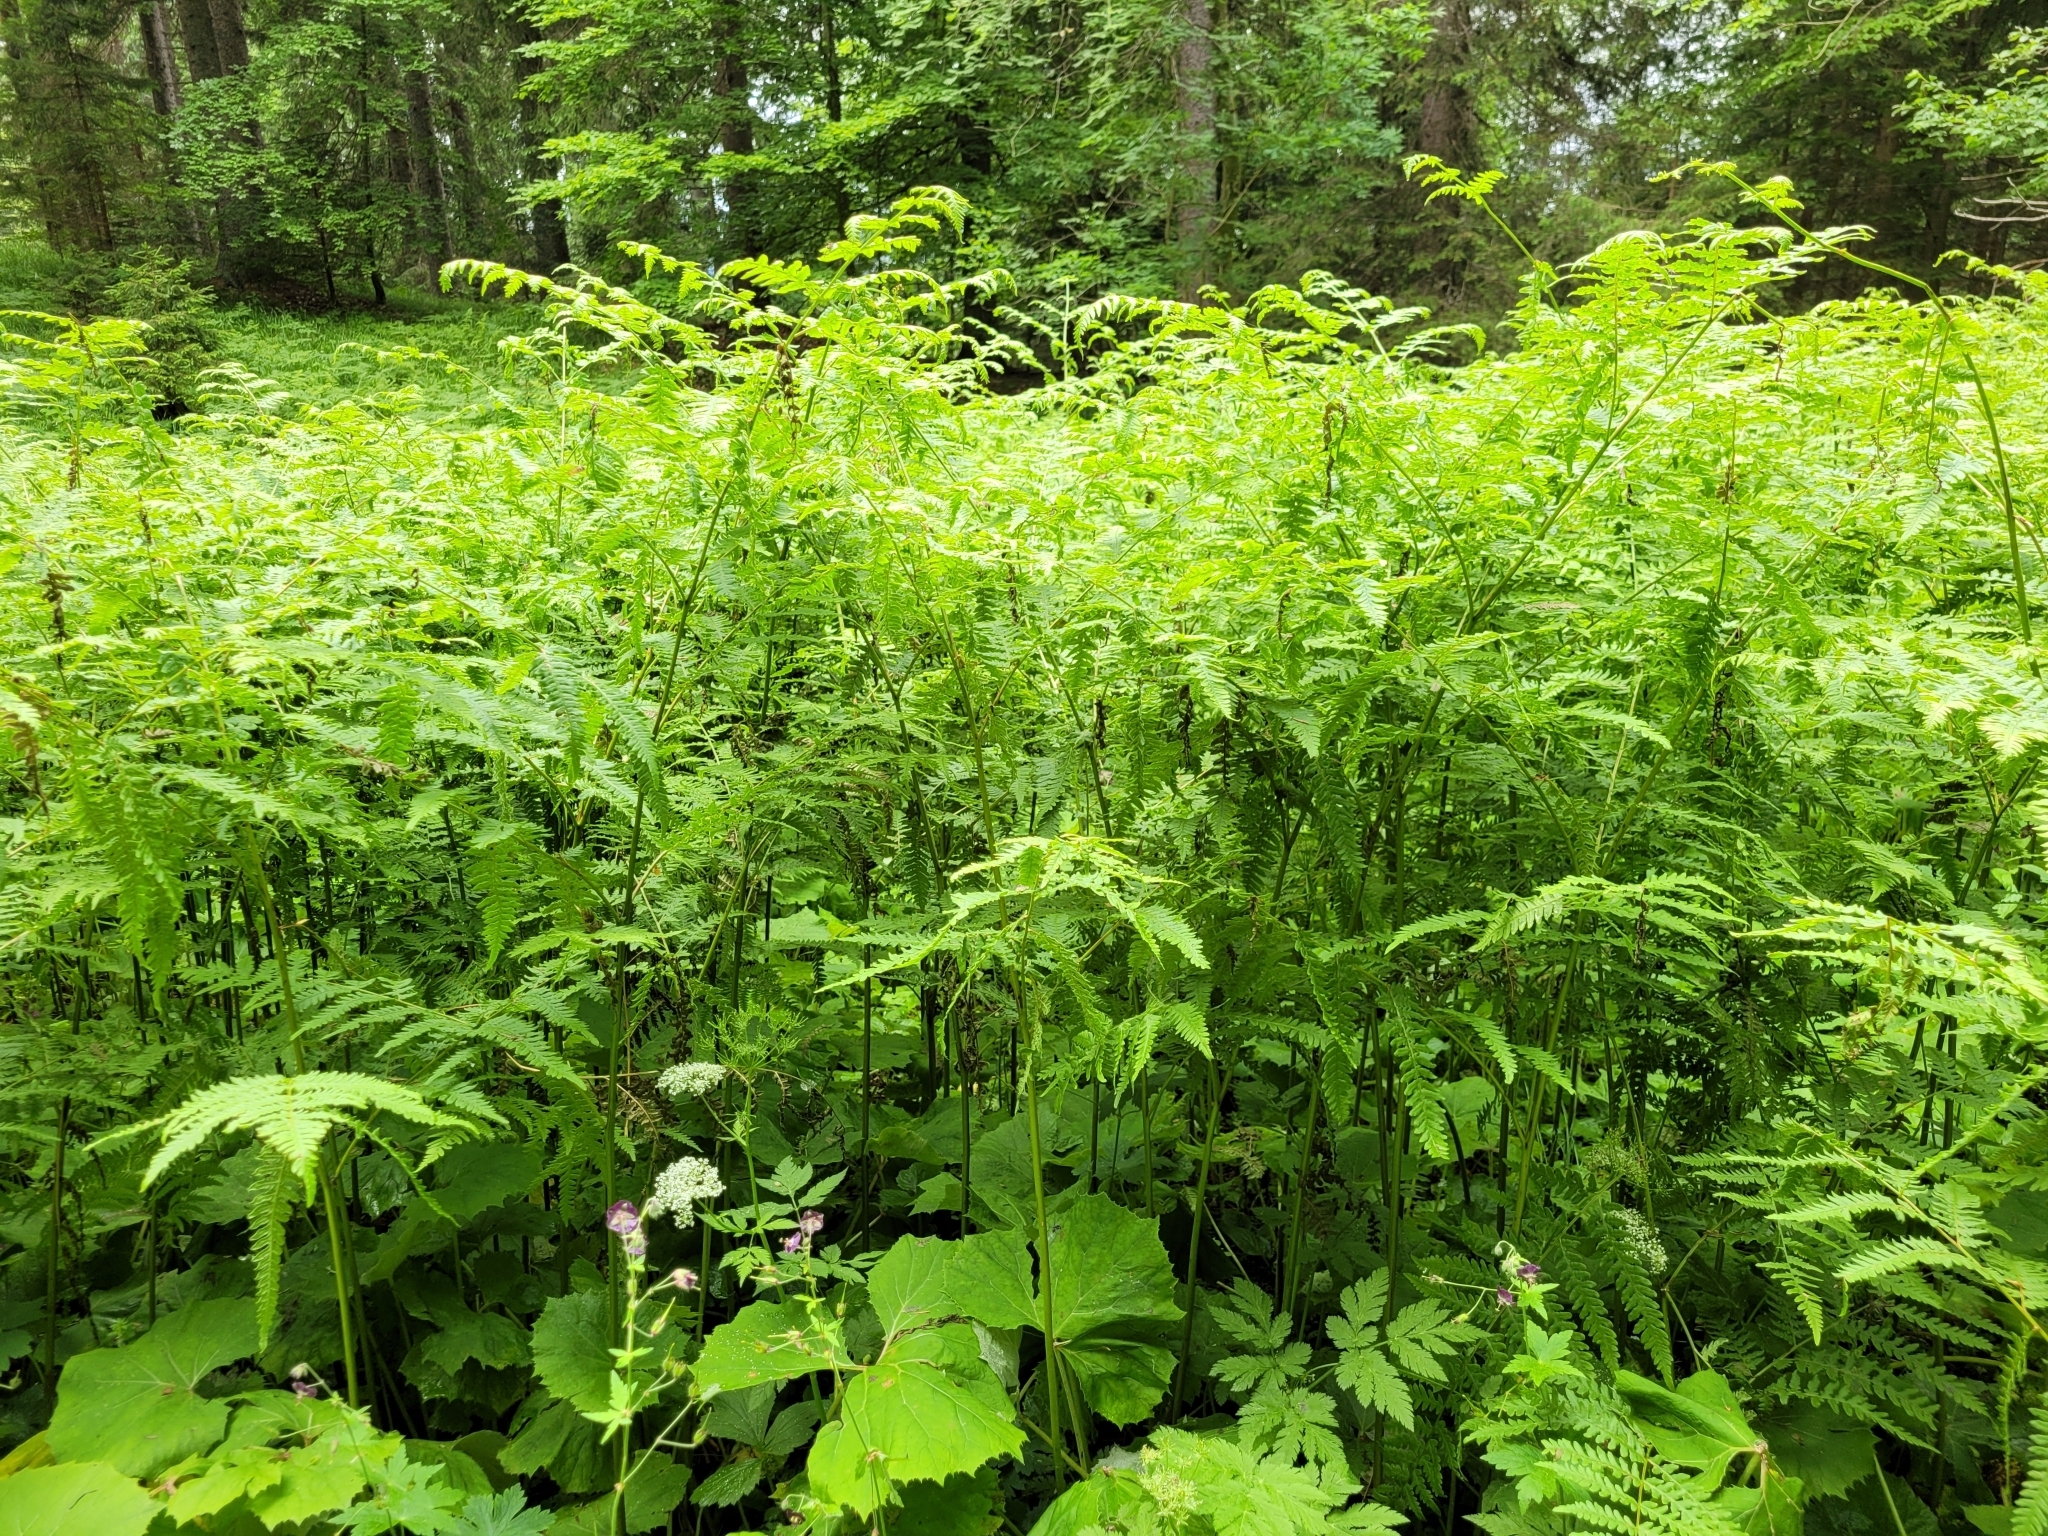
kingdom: Plantae
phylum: Tracheophyta
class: Polypodiopsida
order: Polypodiales
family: Dennstaedtiaceae
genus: Pteridium
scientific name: Pteridium aquilinum
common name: Bracken
